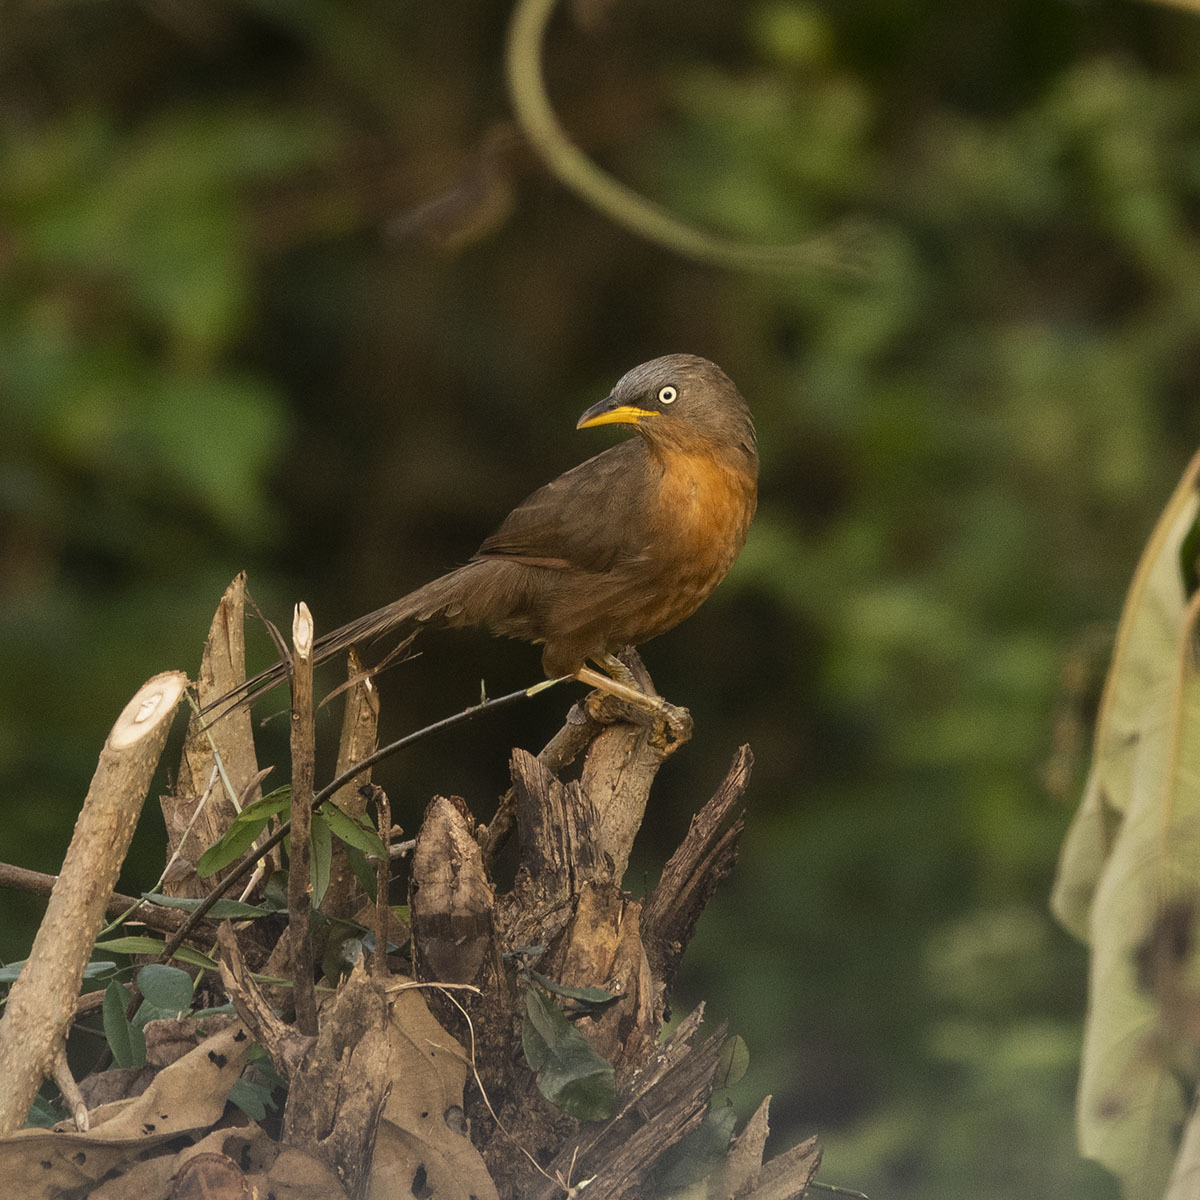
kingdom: Animalia
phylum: Chordata
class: Aves
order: Passeriformes
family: Leiothrichidae
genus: Turdoides
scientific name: Turdoides subrufa
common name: Rufous babbler
